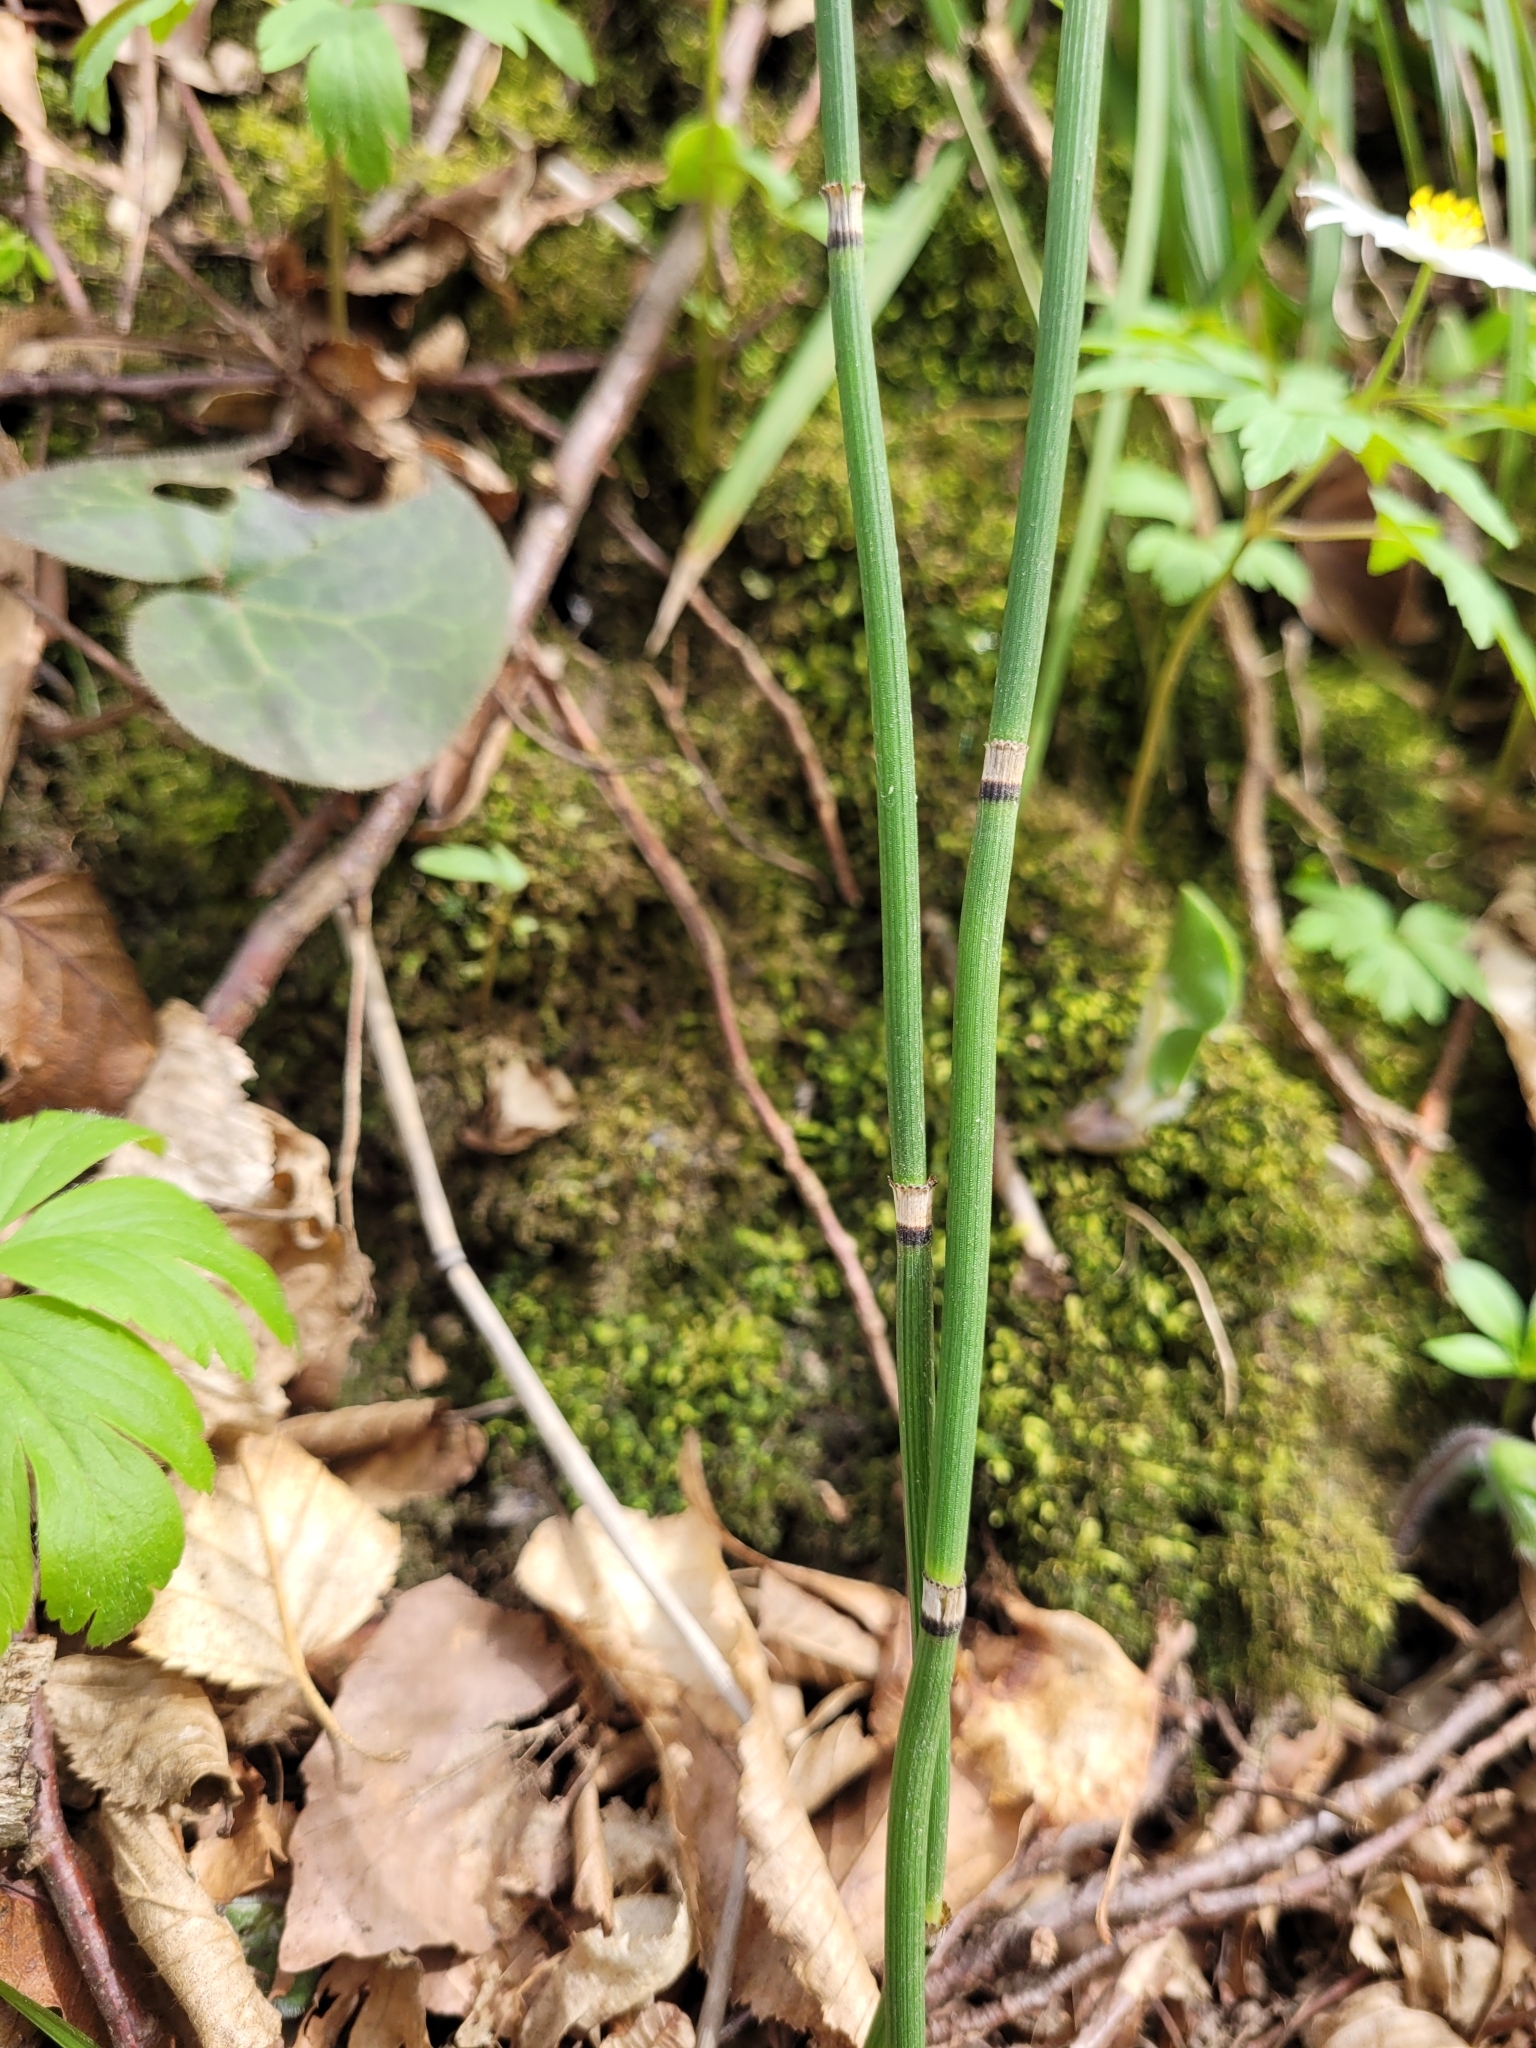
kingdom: Plantae
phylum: Tracheophyta
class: Polypodiopsida
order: Equisetales
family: Equisetaceae
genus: Equisetum
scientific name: Equisetum hyemale
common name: Rough horsetail
